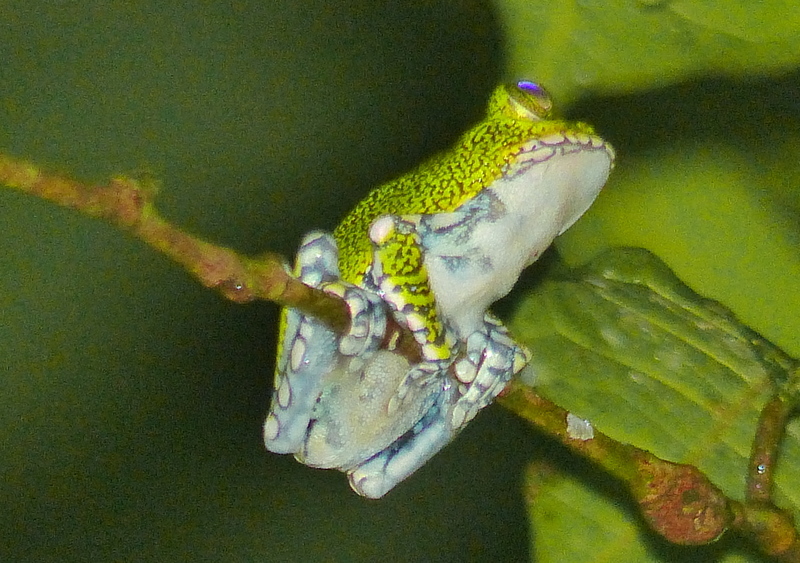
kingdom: Animalia
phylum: Chordata
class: Amphibia
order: Anura
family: Arthroleptidae
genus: Leptopelis
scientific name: Leptopelis vermiculatus
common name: Amani forest treefrog
